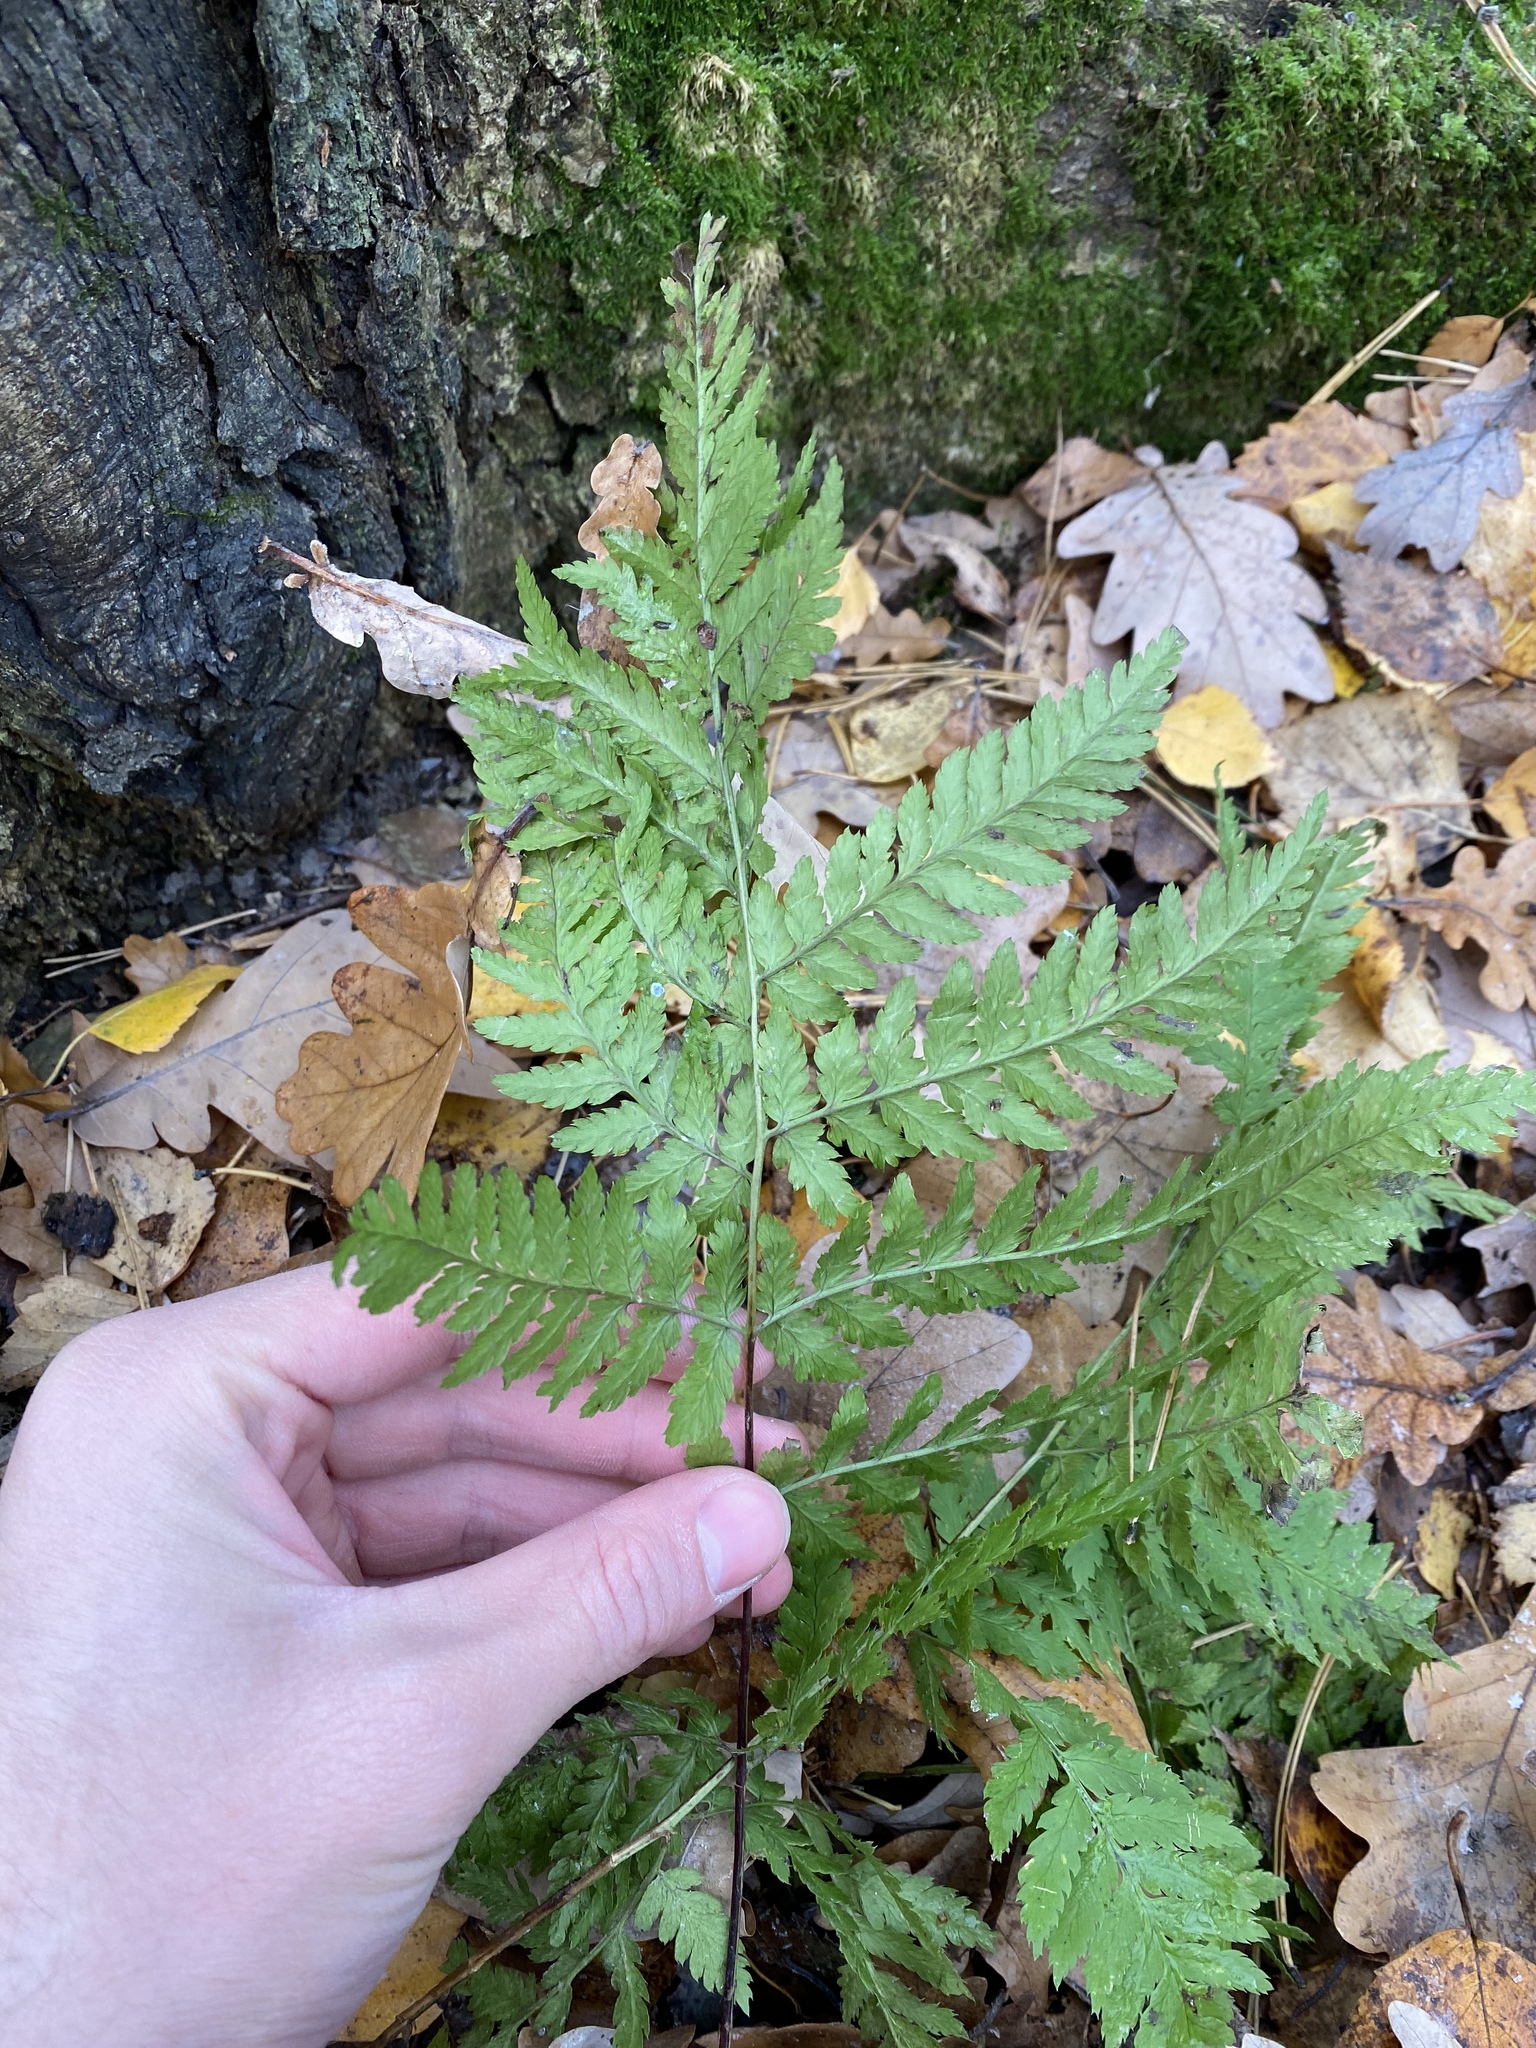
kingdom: Plantae
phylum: Tracheophyta
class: Polypodiopsida
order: Polypodiales
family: Dryopteridaceae
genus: Dryopteris
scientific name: Dryopteris carthusiana
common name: Narrow buckler-fern
